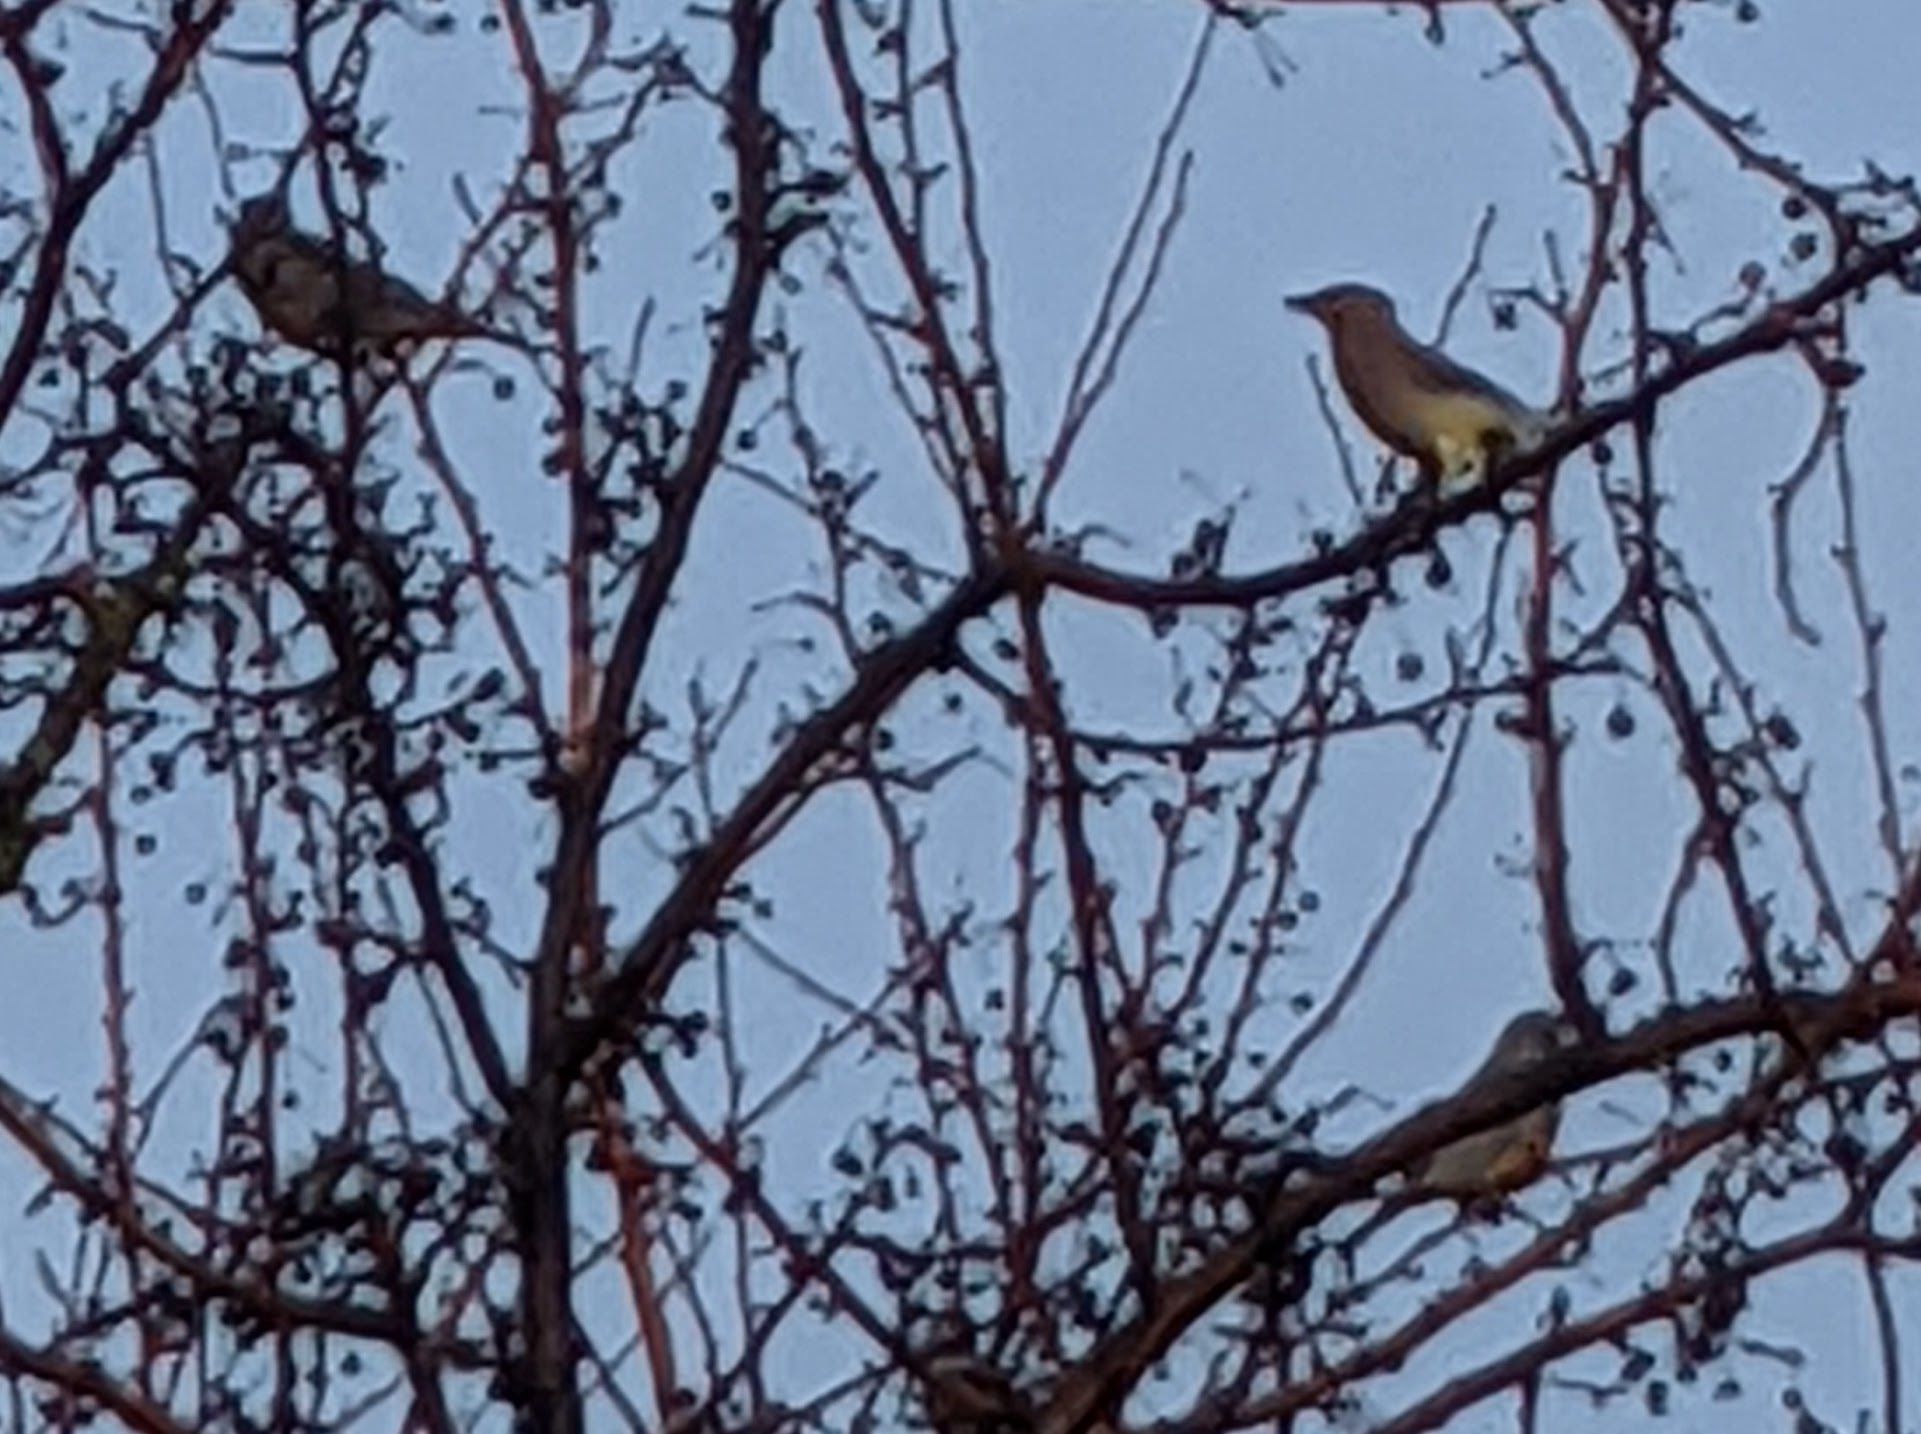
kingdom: Animalia
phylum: Chordata
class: Aves
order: Passeriformes
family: Bombycillidae
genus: Bombycilla
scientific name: Bombycilla cedrorum
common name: Cedar waxwing
